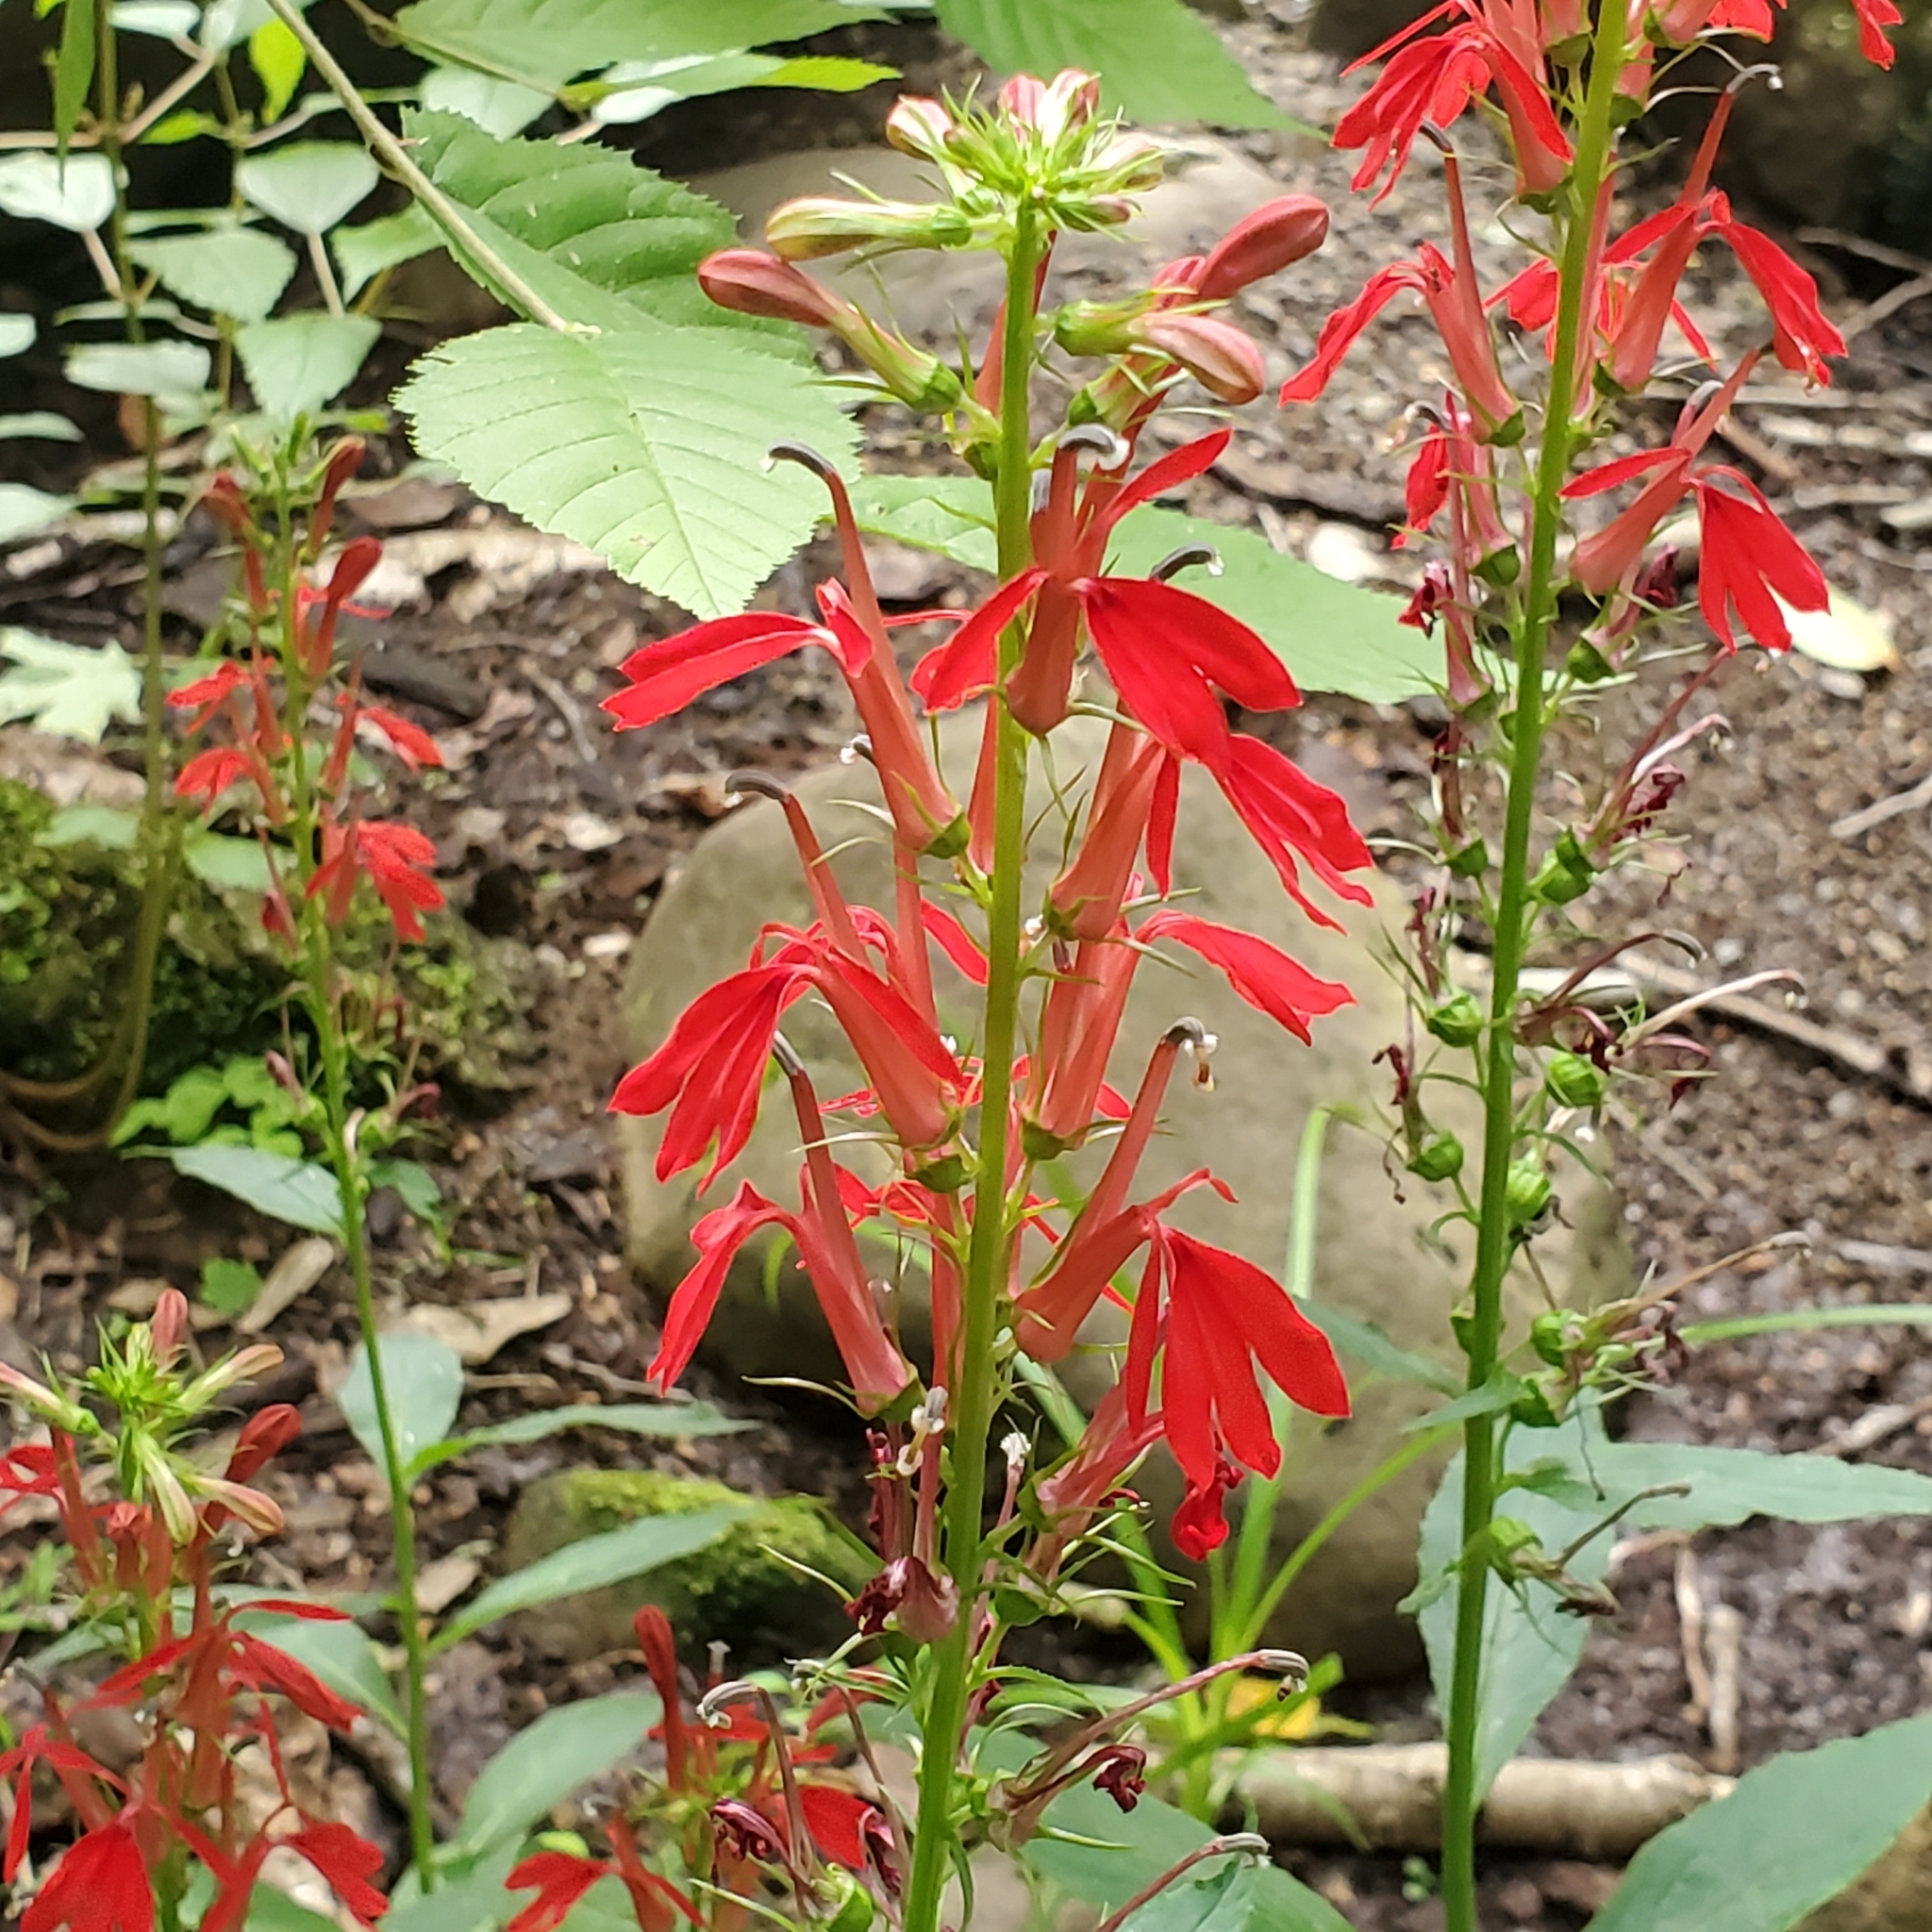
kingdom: Plantae
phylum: Tracheophyta
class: Magnoliopsida
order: Asterales
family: Campanulaceae
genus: Lobelia
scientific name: Lobelia cardinalis
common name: Cardinal flower
